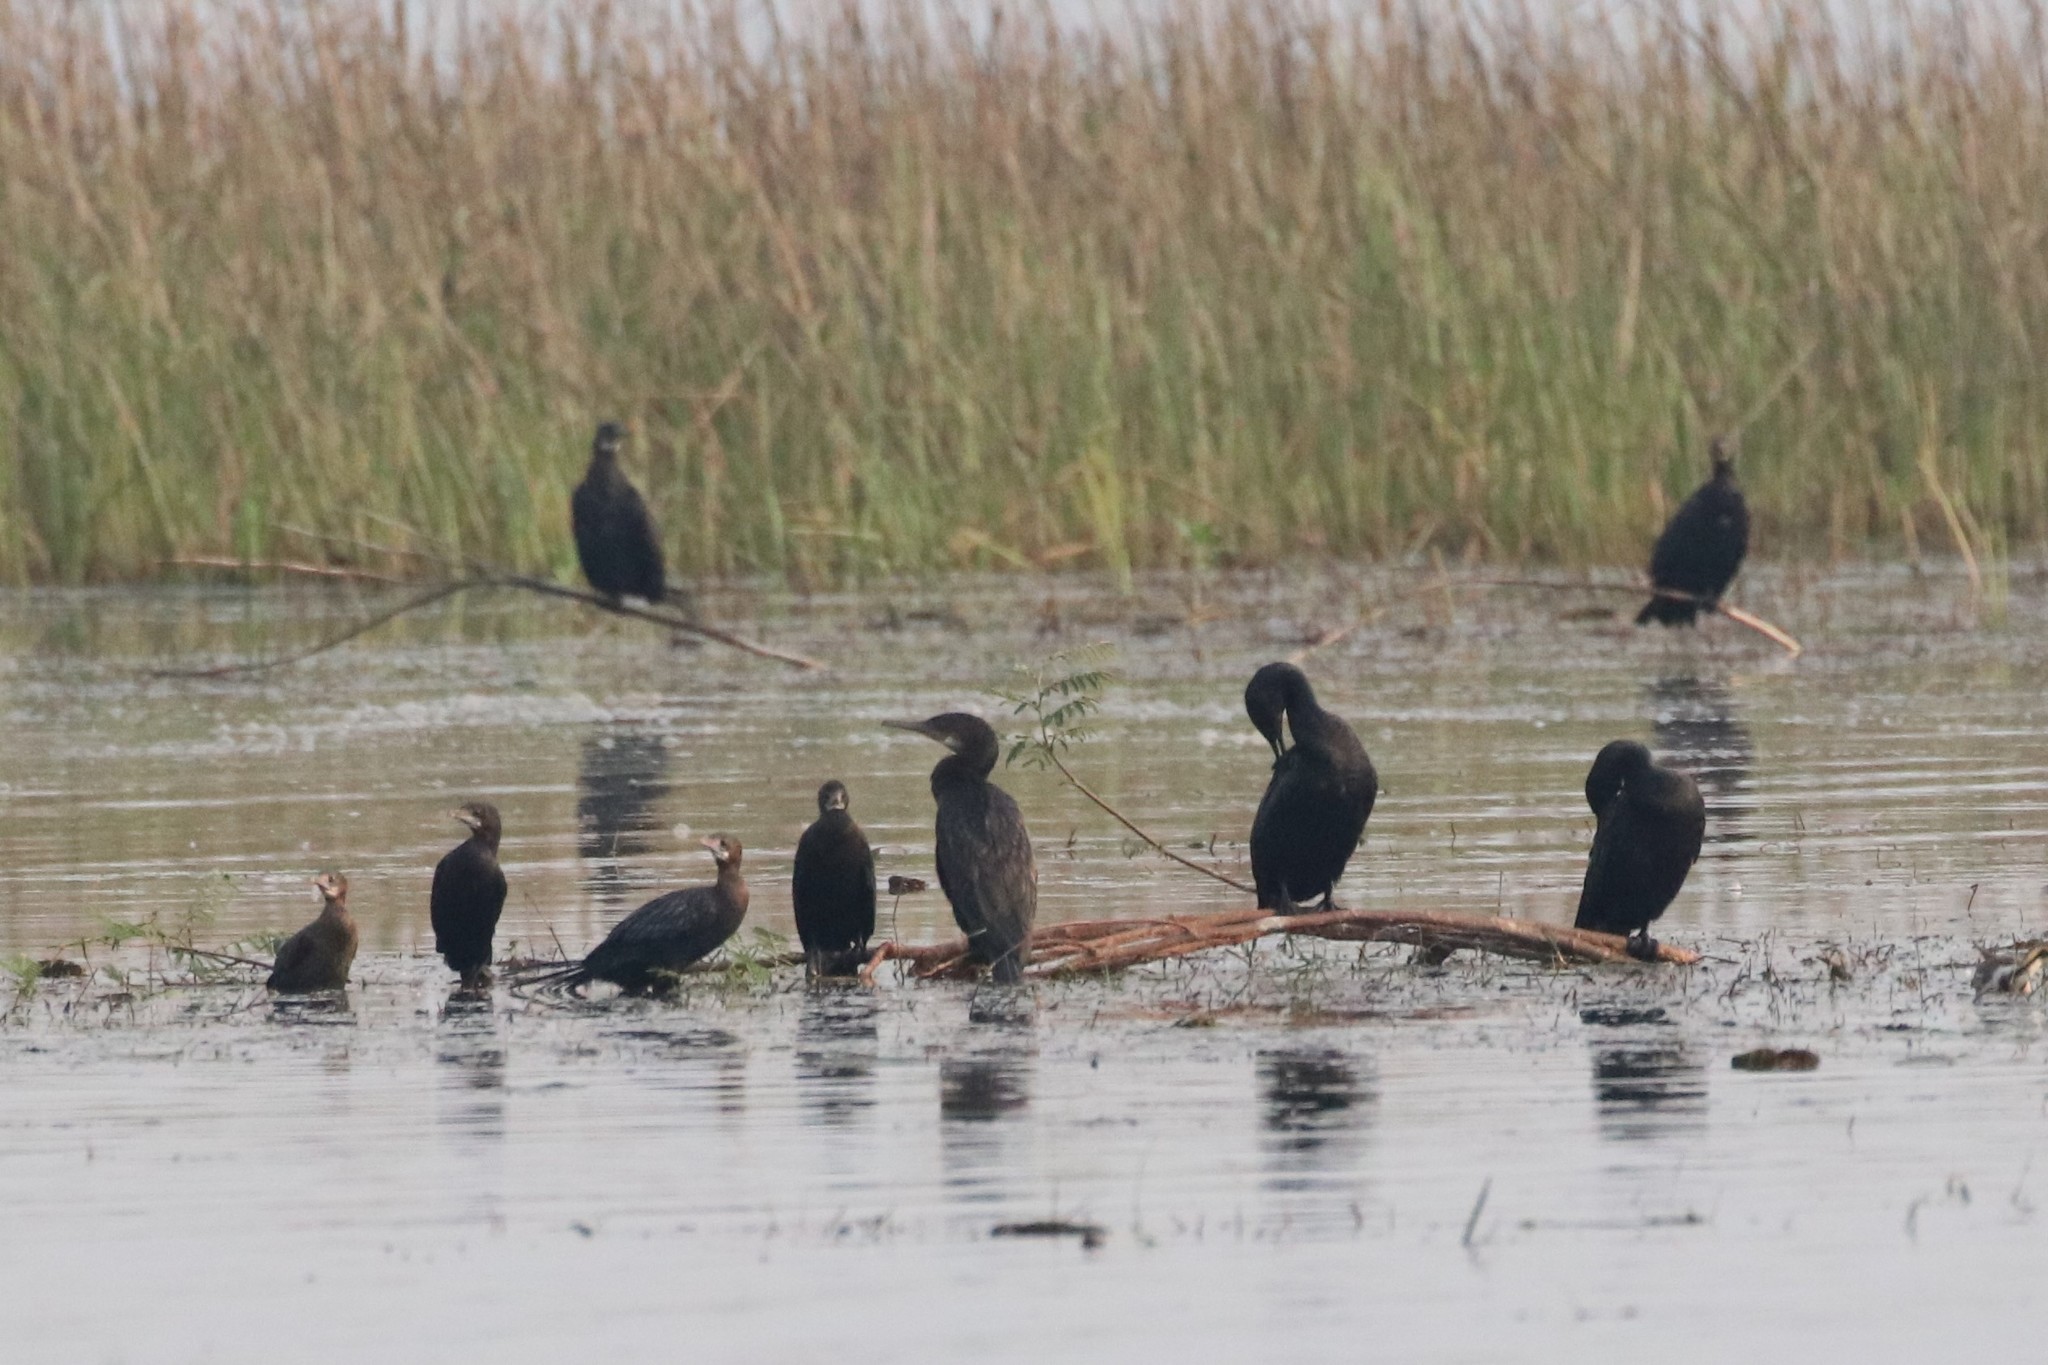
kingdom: Animalia
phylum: Chordata
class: Aves
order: Suliformes
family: Phalacrocoracidae
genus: Phalacrocorax
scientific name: Phalacrocorax fuscicollis
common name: Indian cormorant
